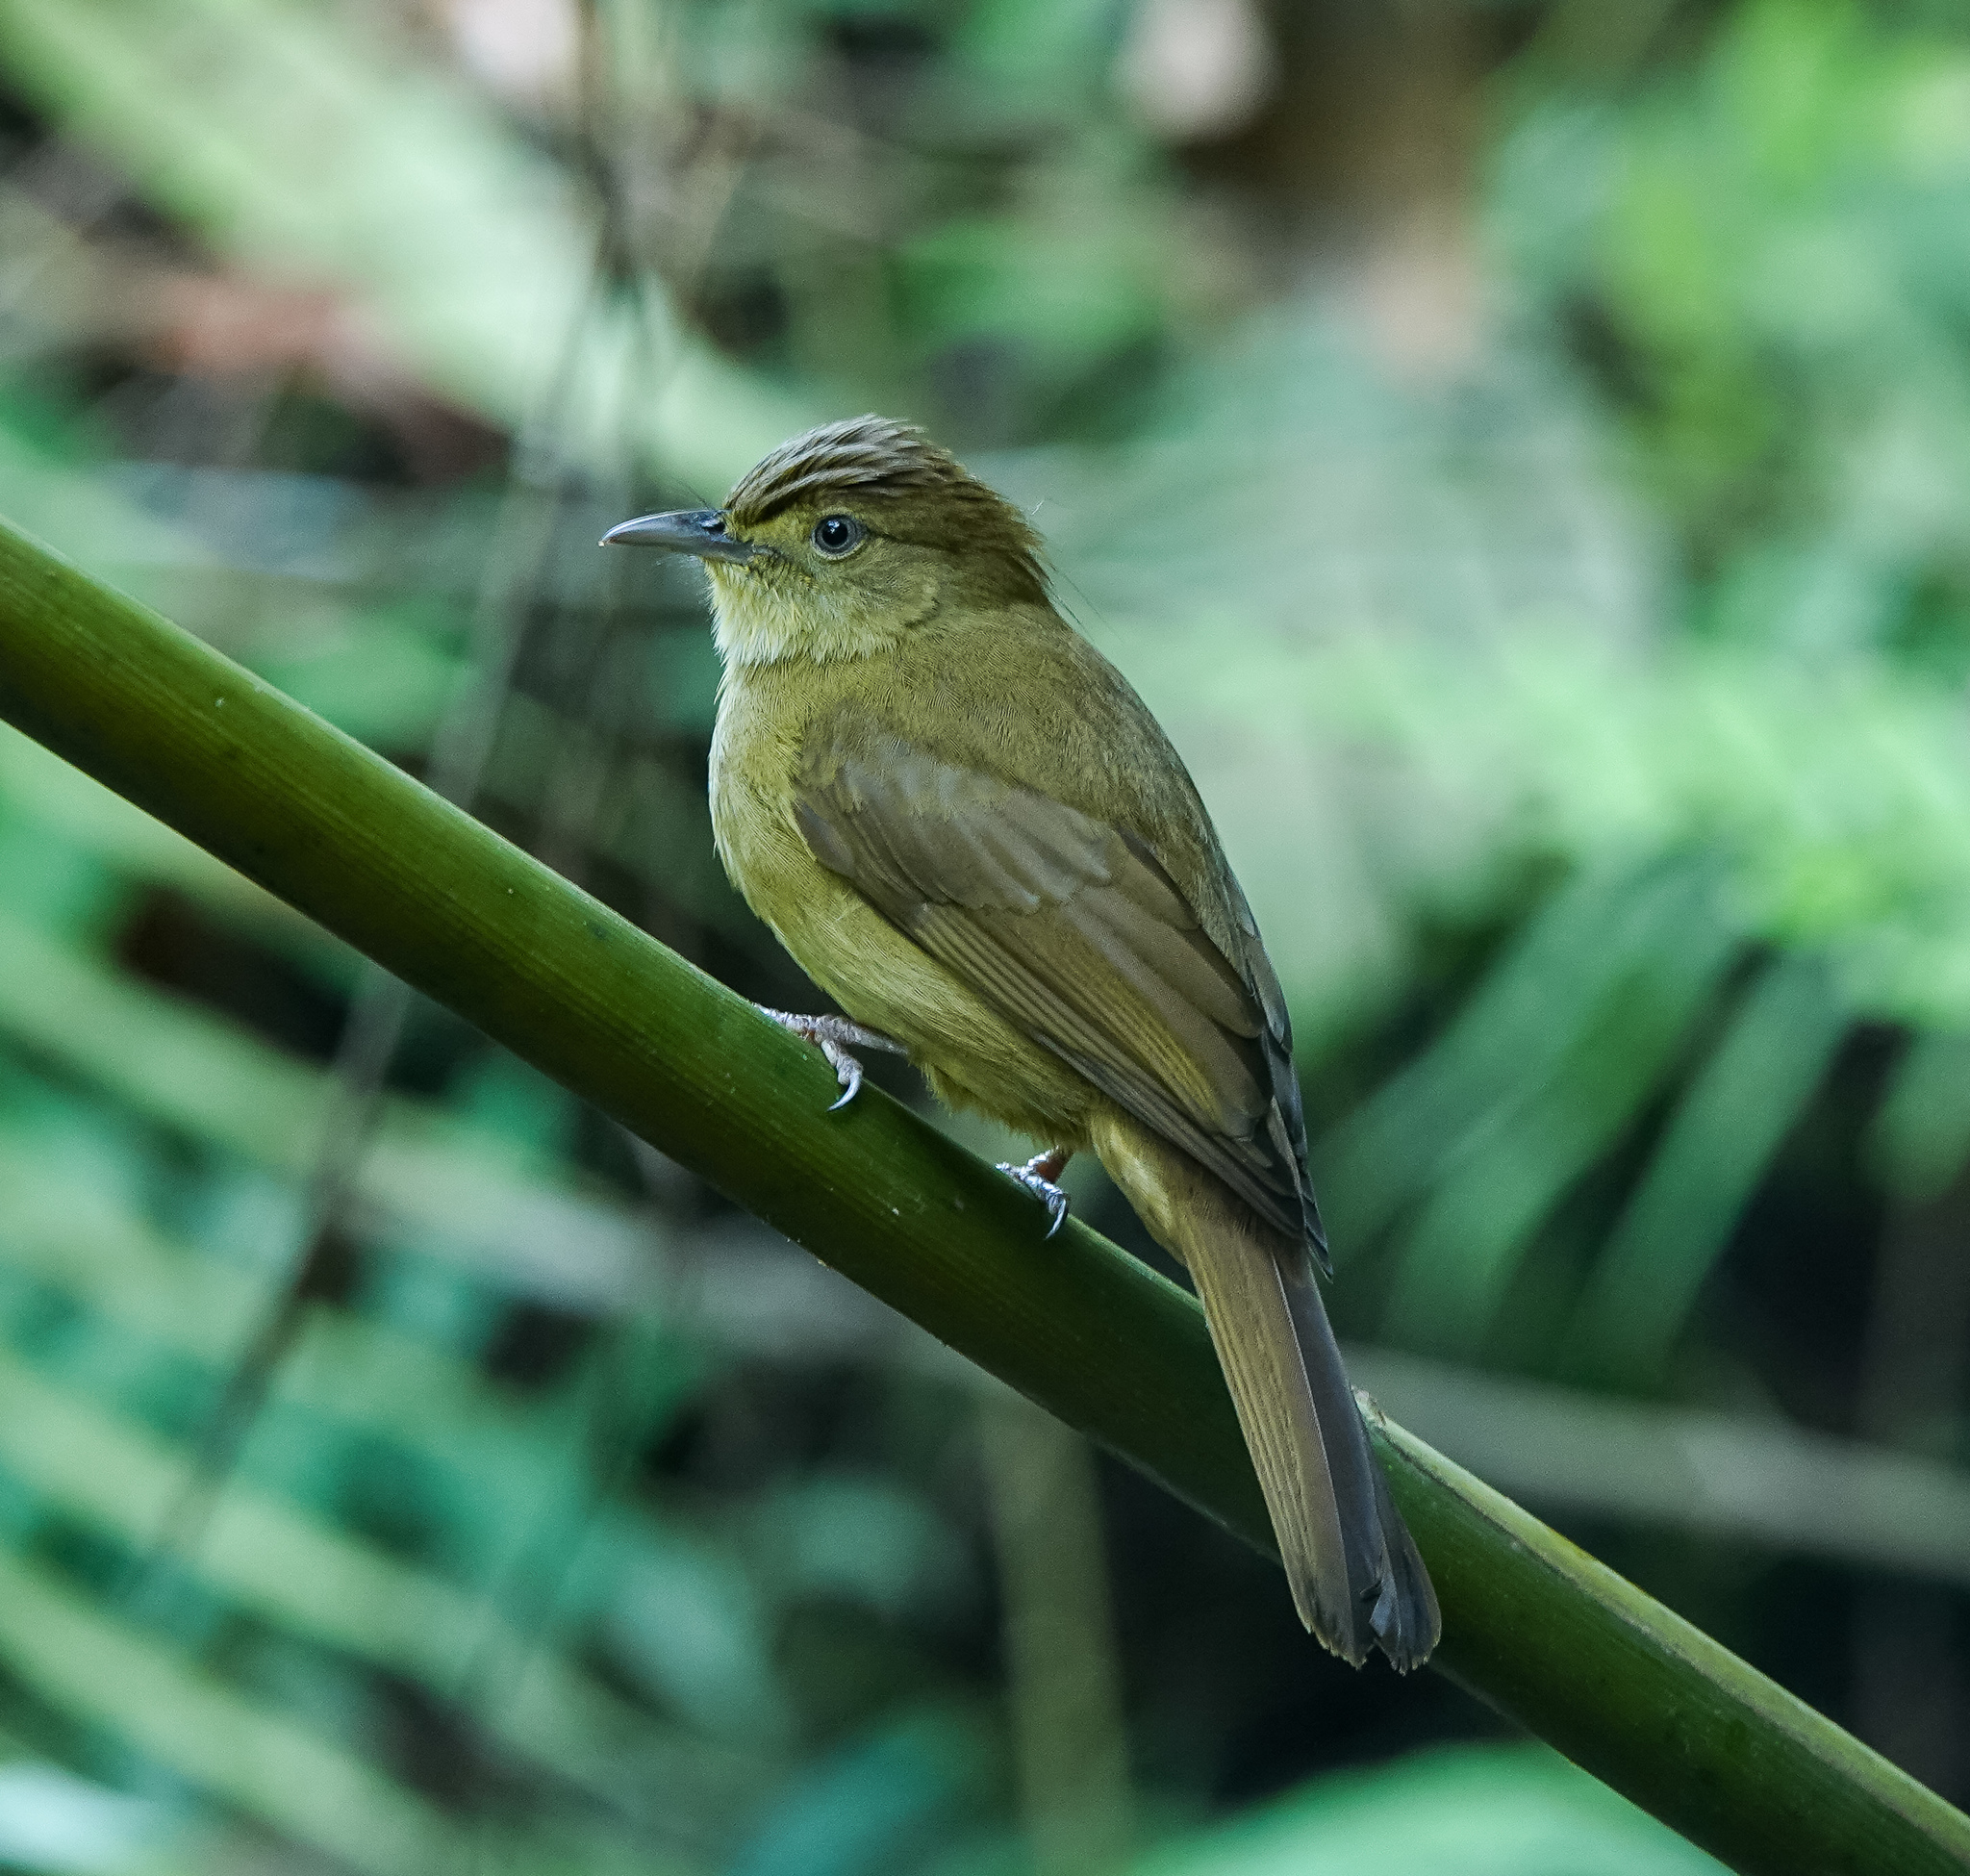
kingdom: Animalia
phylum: Chordata
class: Aves
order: Passeriformes
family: Pycnonotidae
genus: Iole
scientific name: Iole virescens
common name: Olive bulbul
